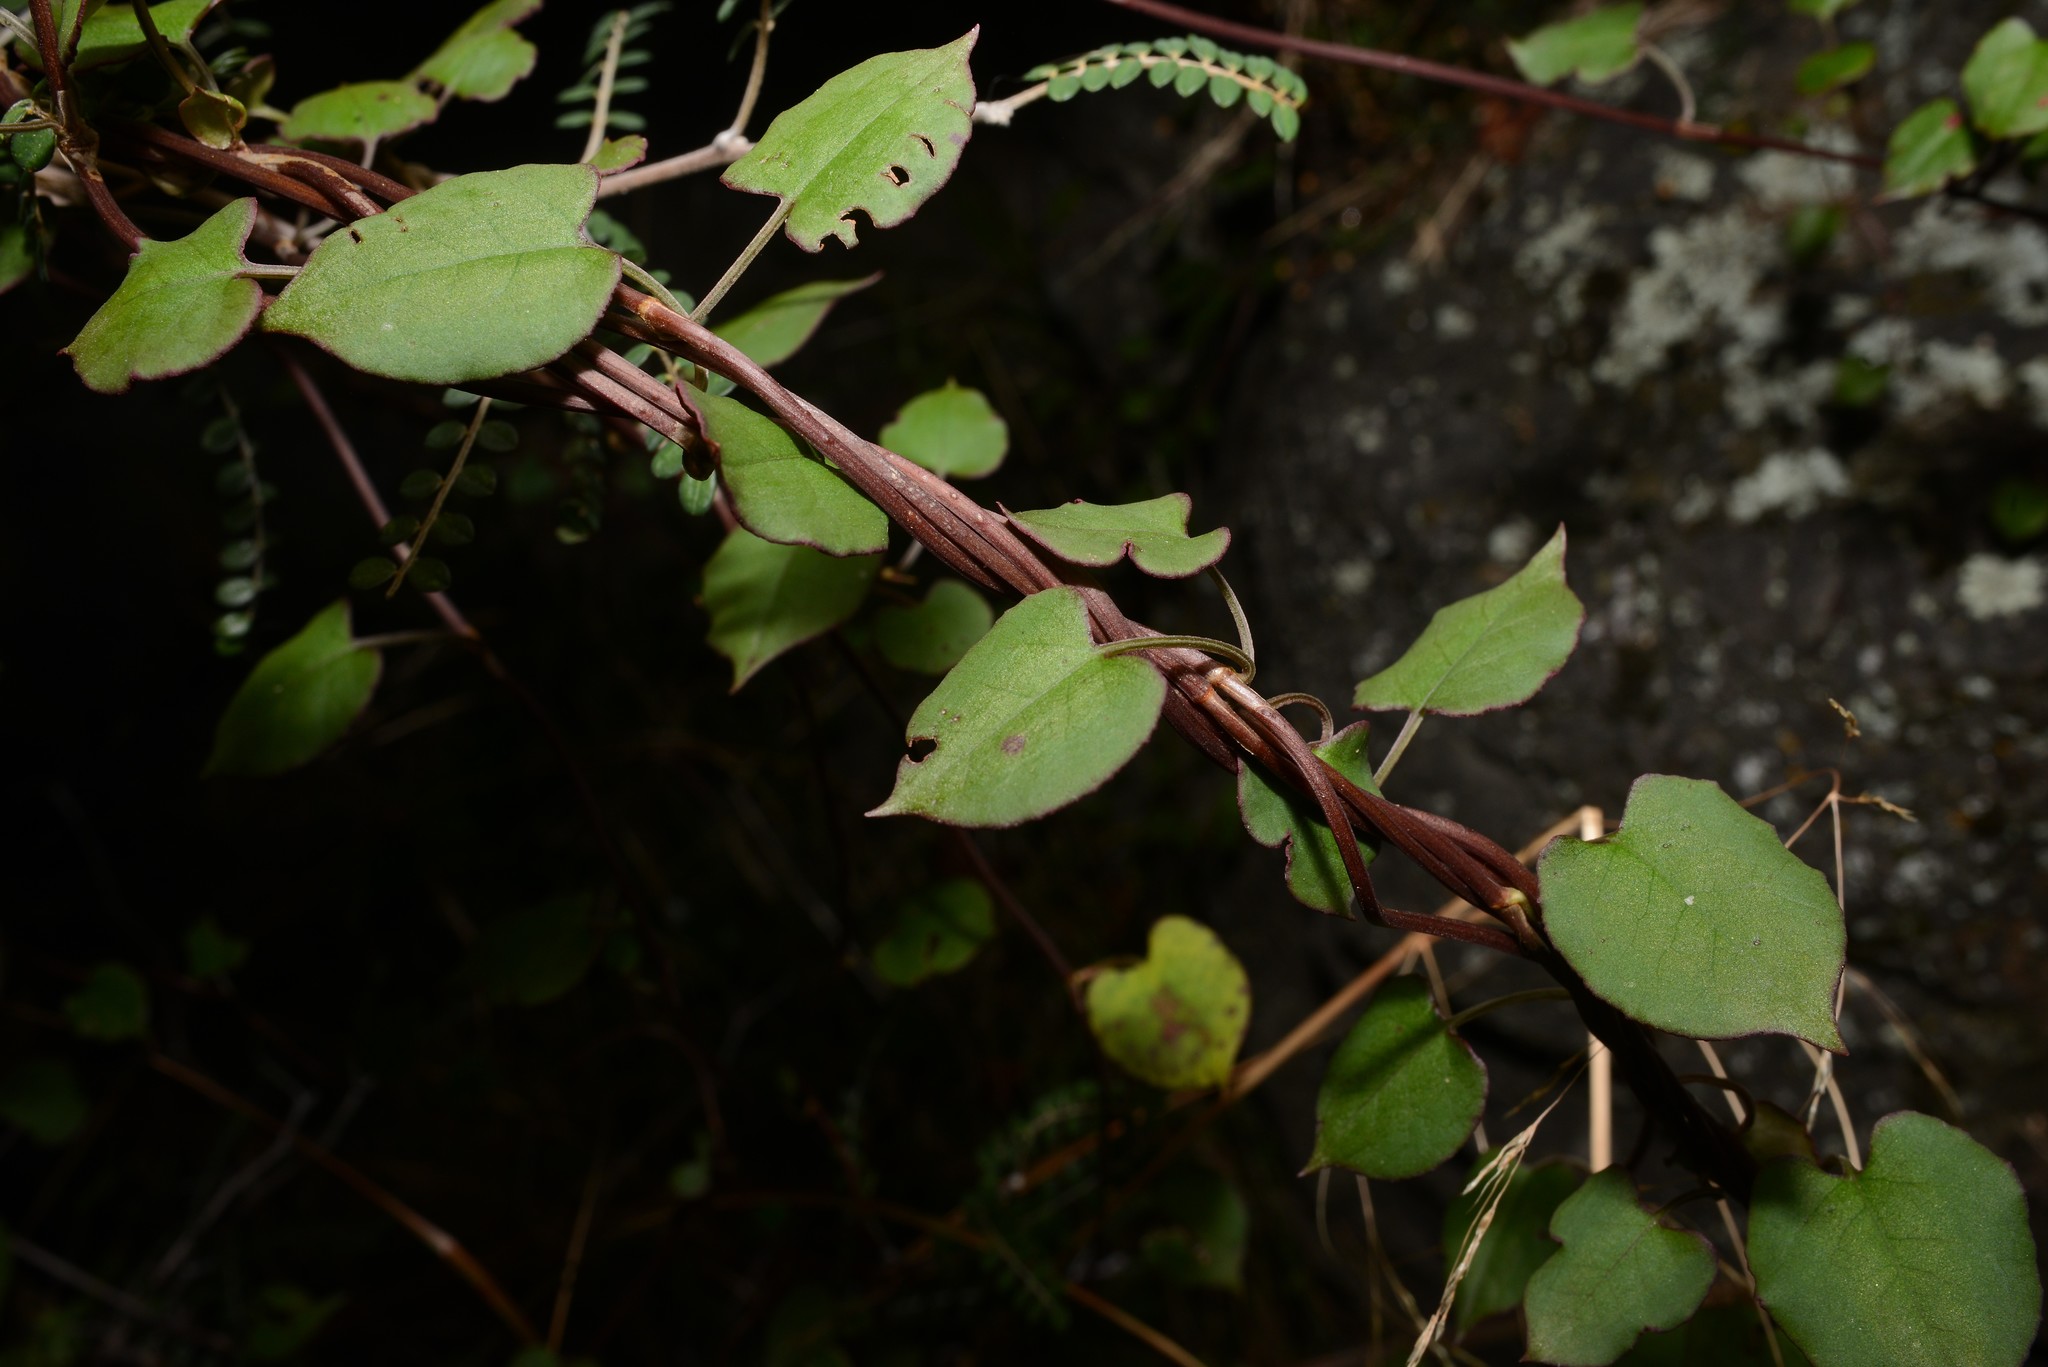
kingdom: Plantae
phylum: Tracheophyta
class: Magnoliopsida
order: Caryophyllales
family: Polygonaceae
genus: Muehlenbeckia
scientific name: Muehlenbeckia australis
